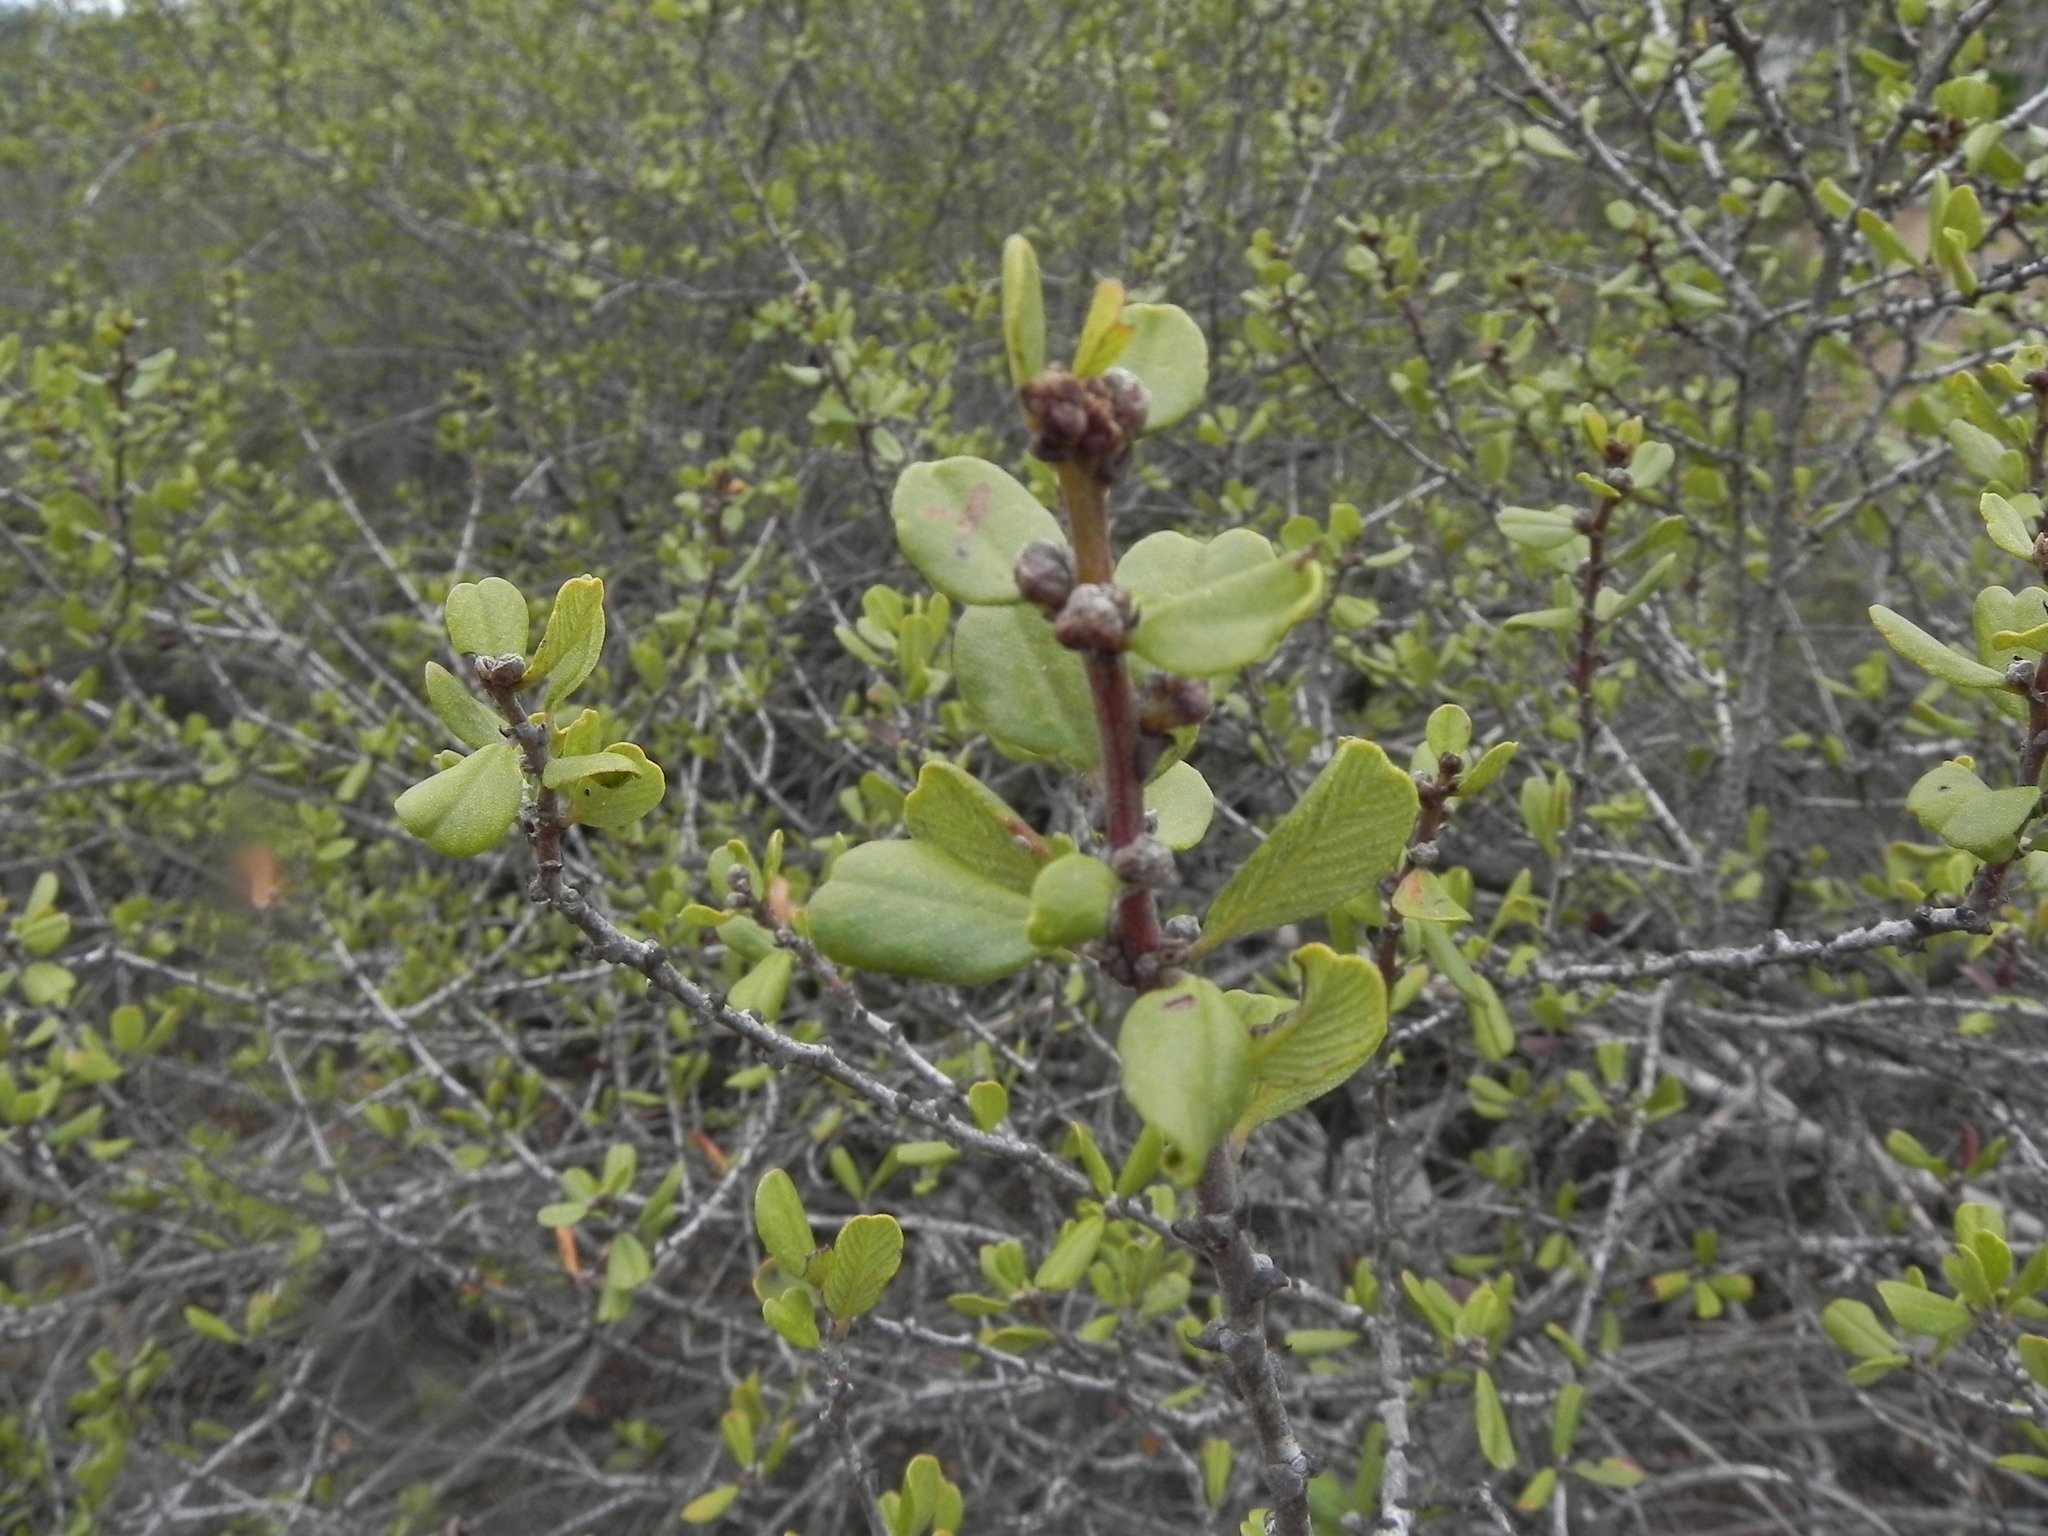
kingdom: Plantae
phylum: Tracheophyta
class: Magnoliopsida
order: Rosales
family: Rhamnaceae
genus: Ceanothus
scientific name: Ceanothus verrucosus
